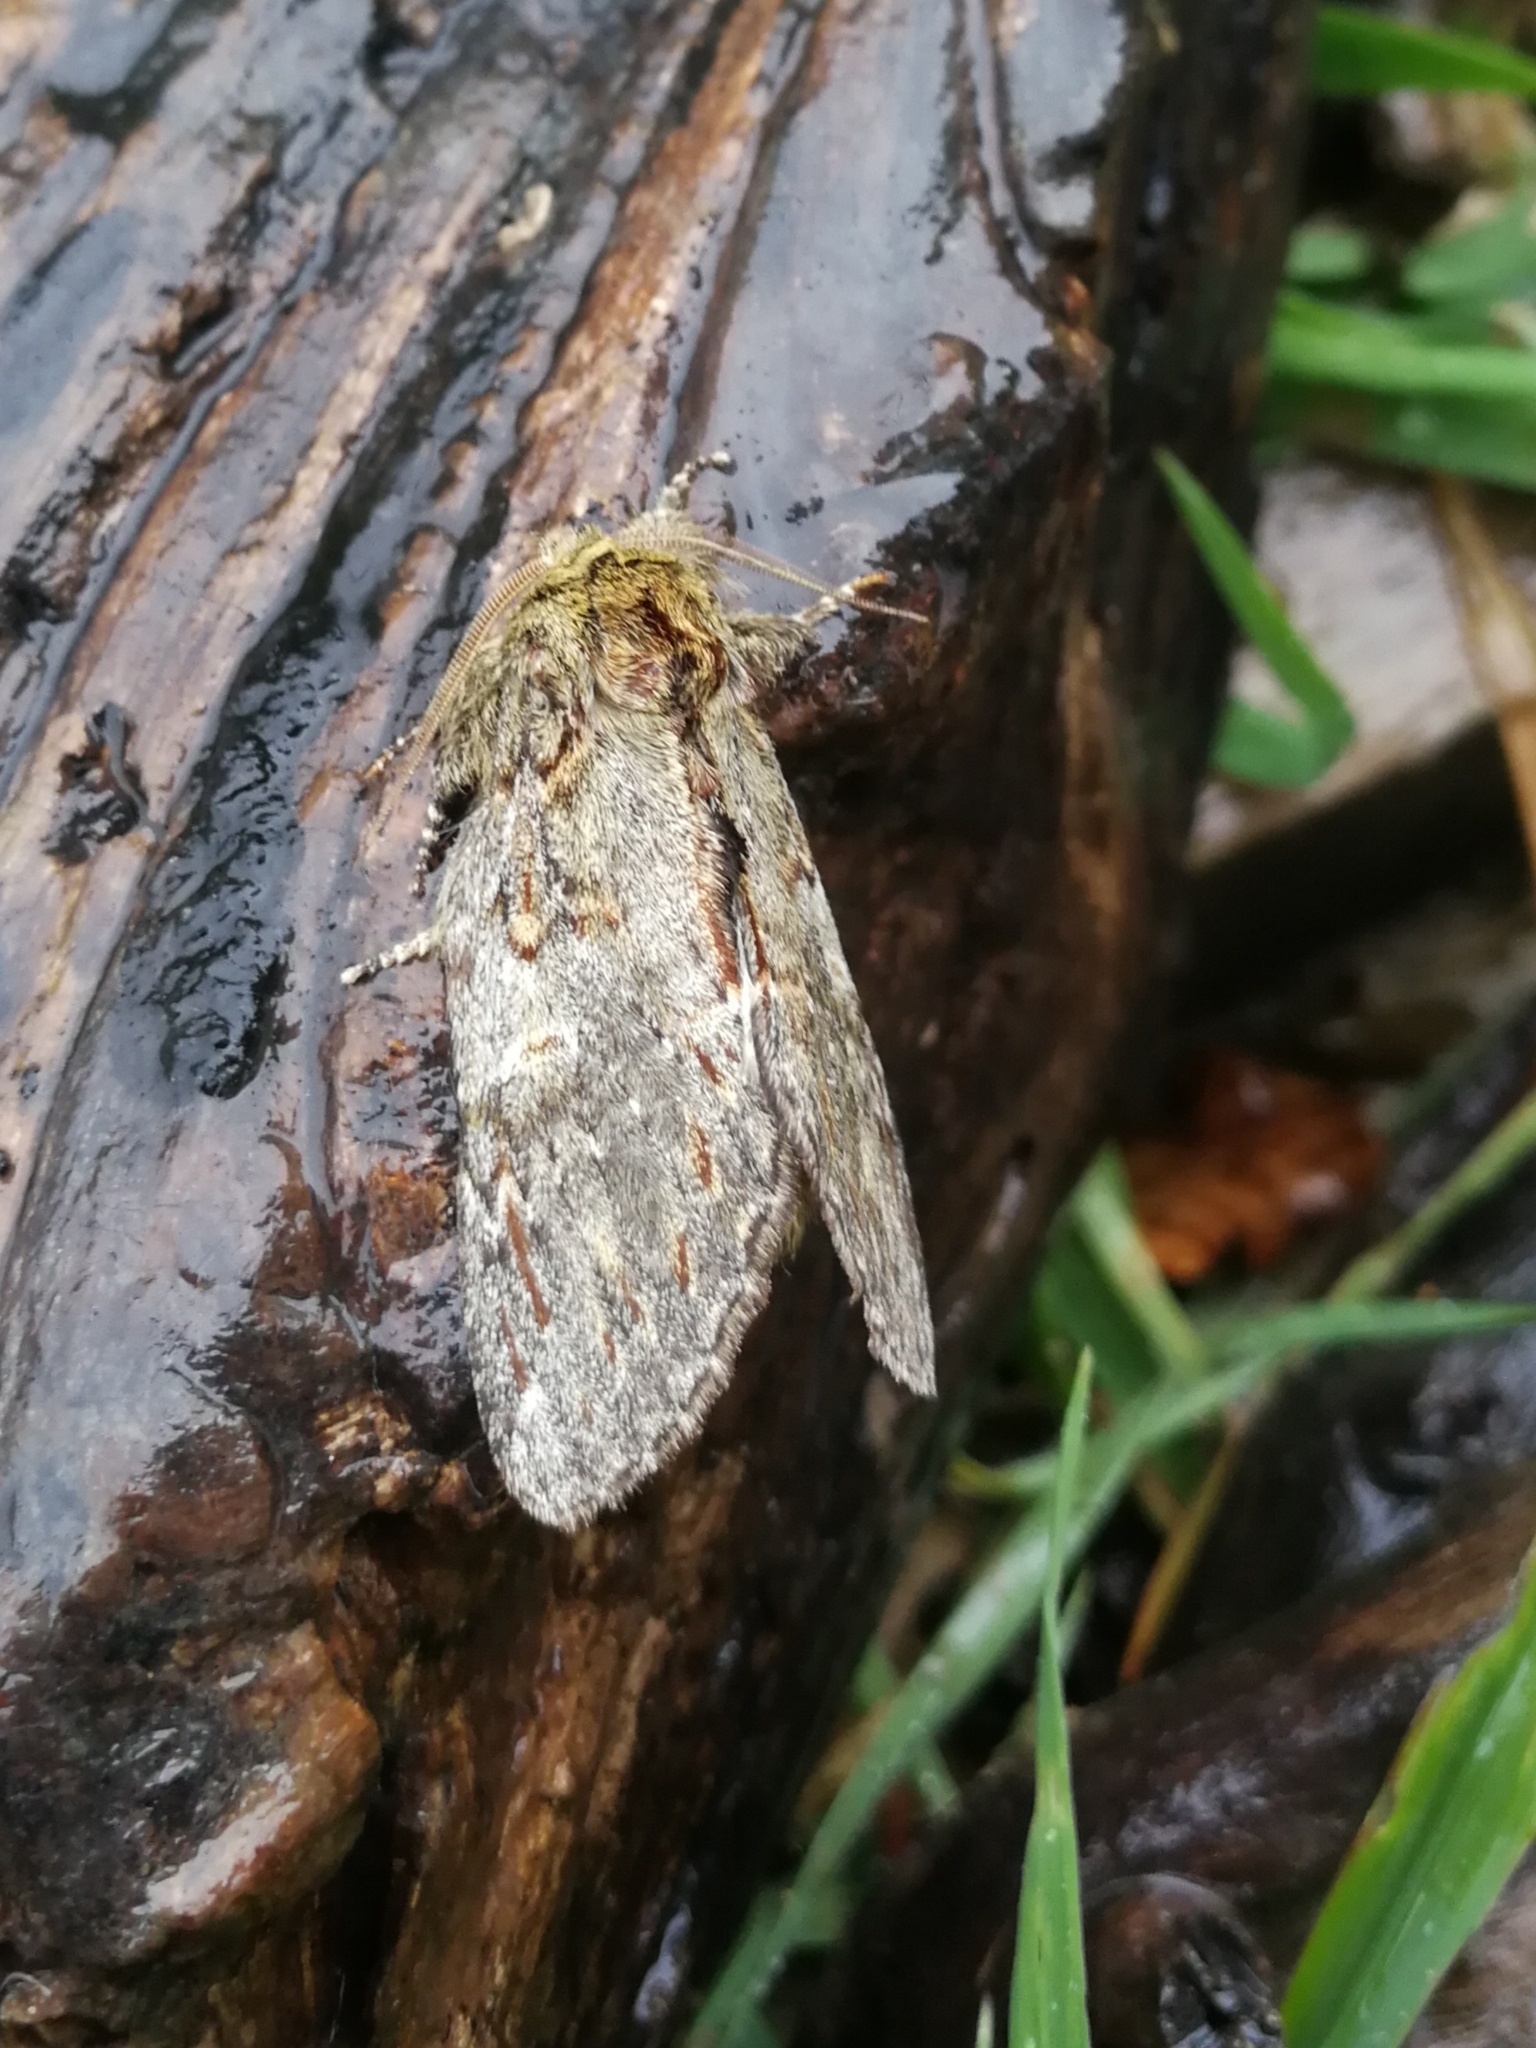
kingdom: Animalia
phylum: Arthropoda
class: Insecta
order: Lepidoptera
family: Notodontidae
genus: Peridea
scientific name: Peridea anceps
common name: Great prominent
